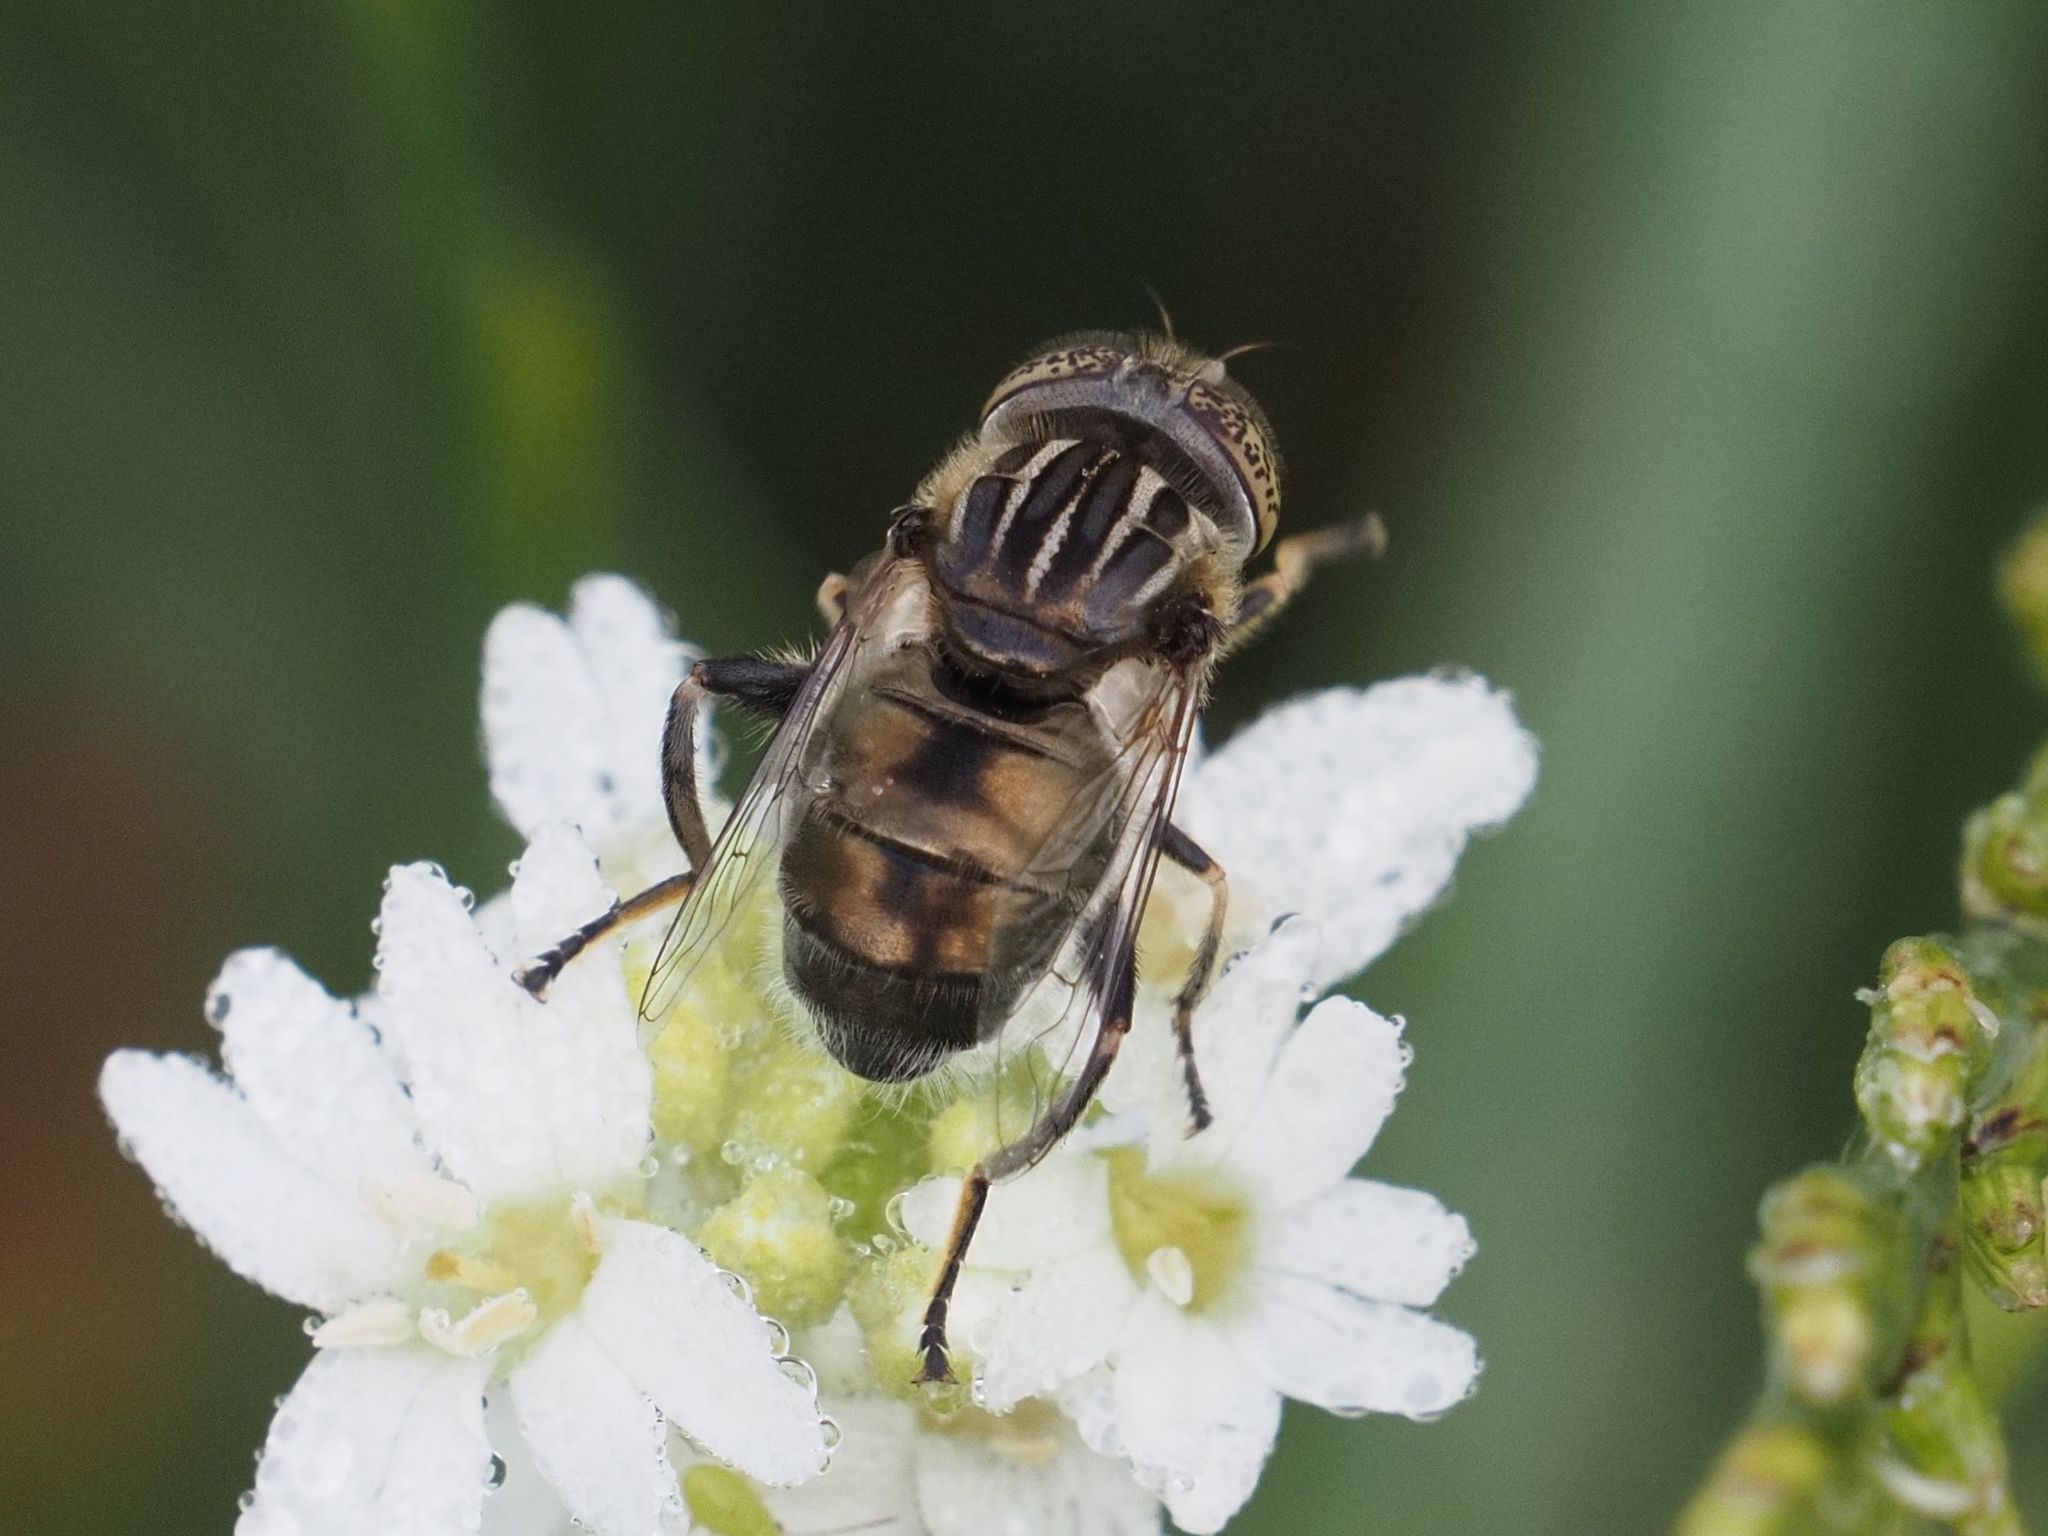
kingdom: Animalia
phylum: Arthropoda
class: Insecta
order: Diptera
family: Syrphidae
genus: Eristalinus
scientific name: Eristalinus sepulchralis
